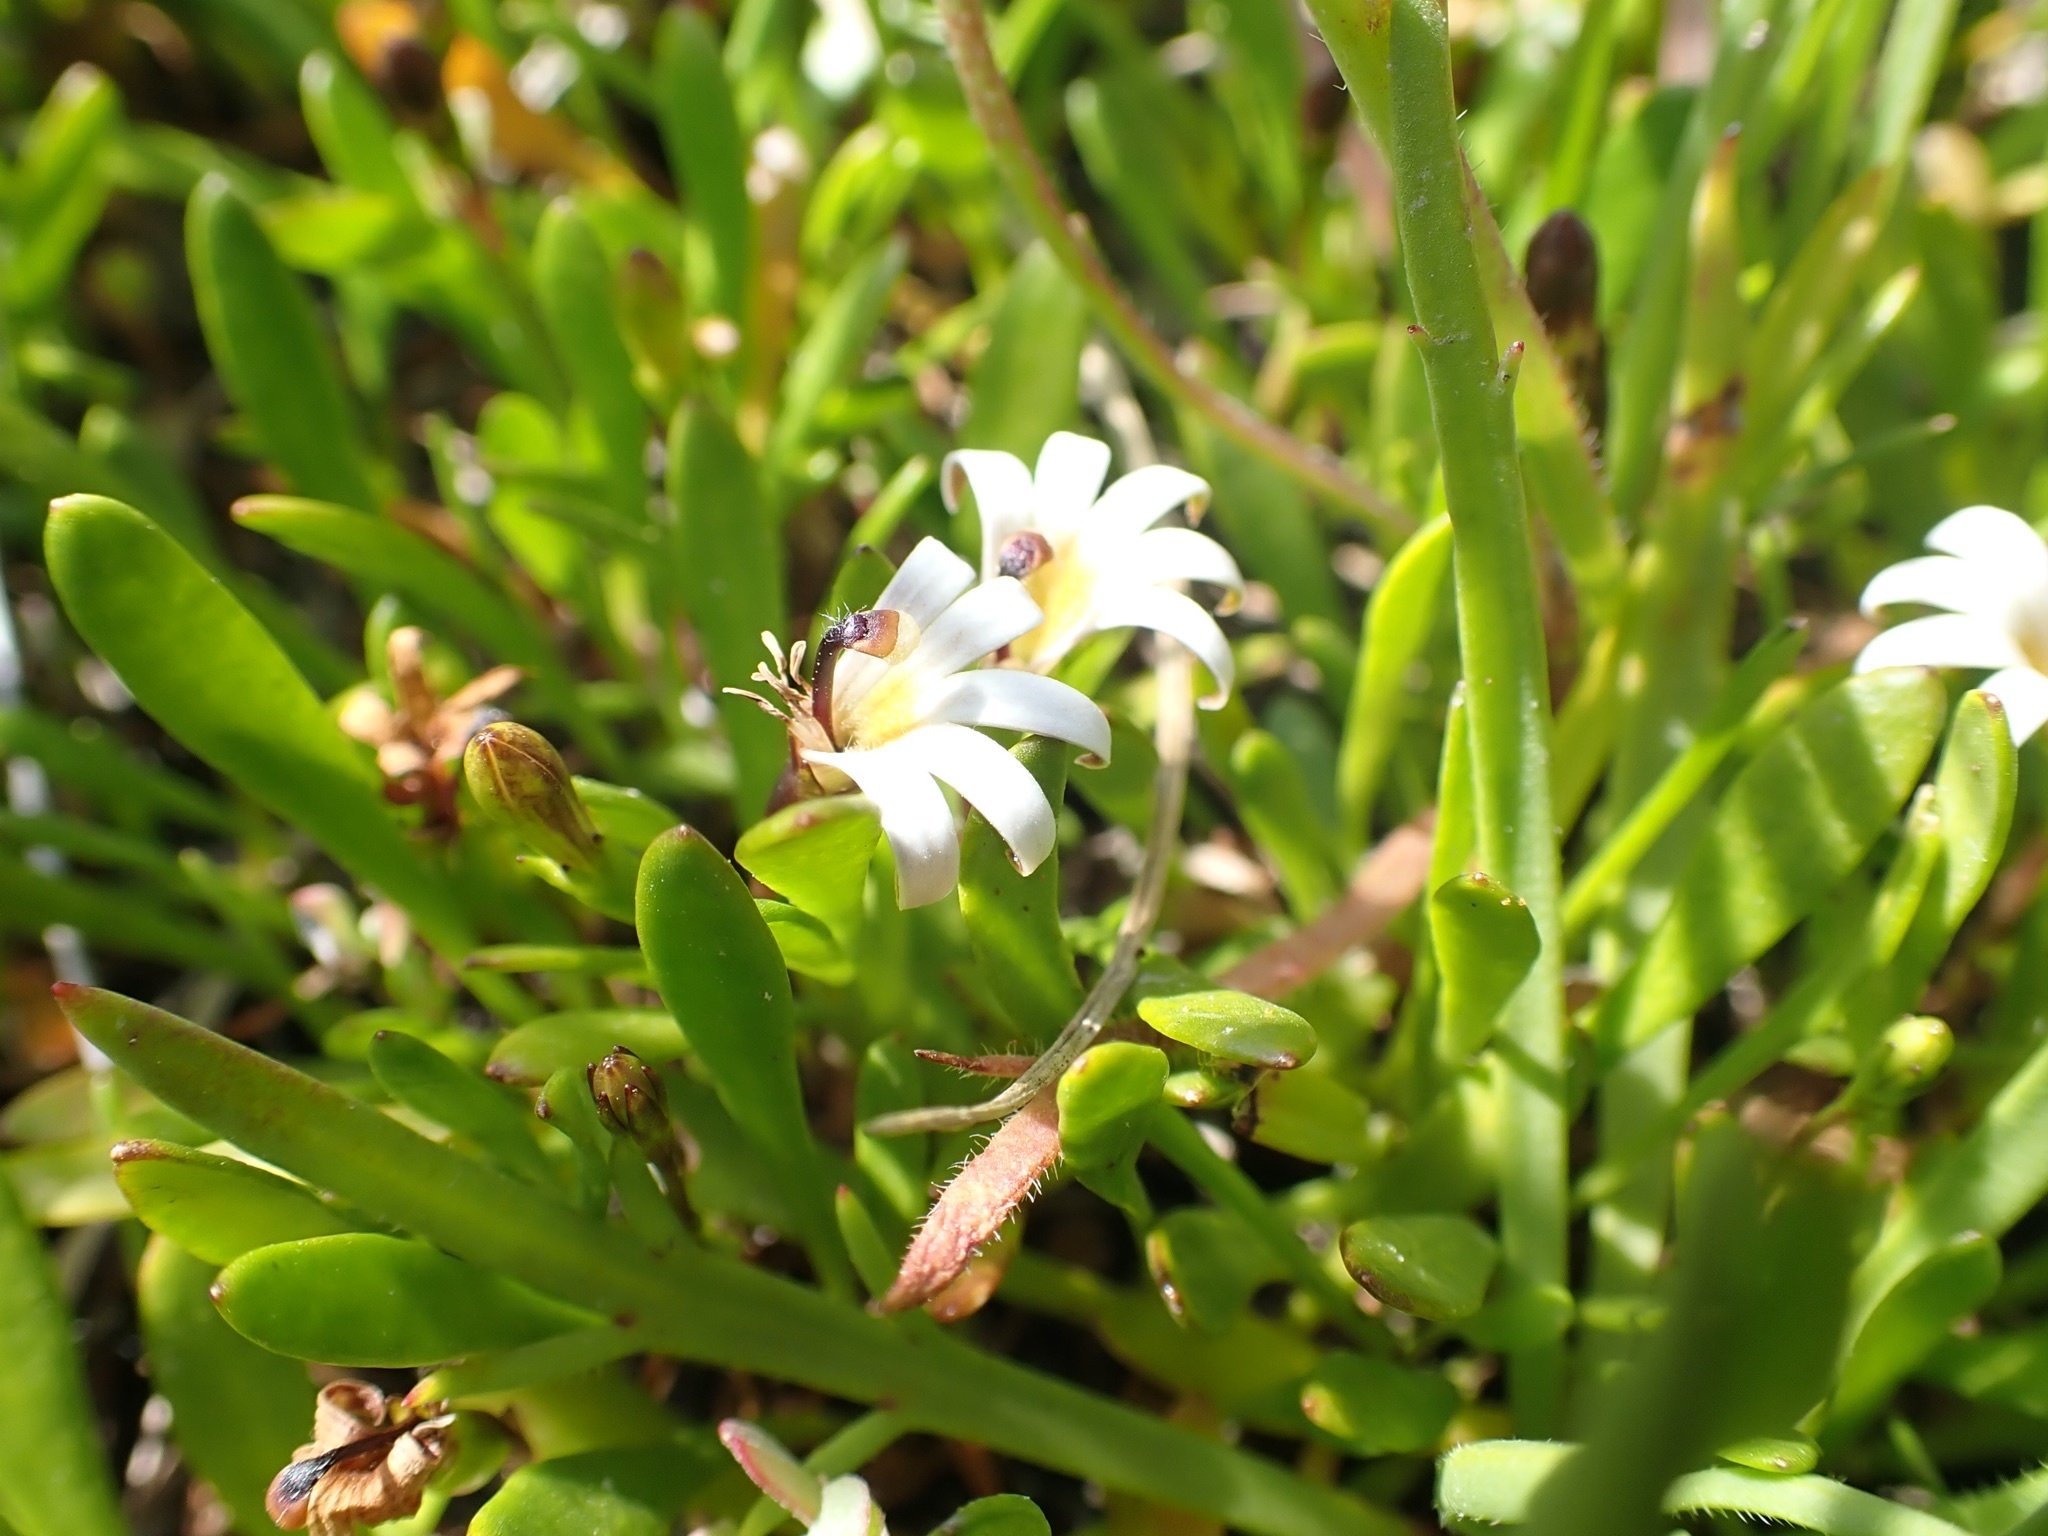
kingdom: Plantae
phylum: Tracheophyta
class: Magnoliopsida
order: Asterales
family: Goodeniaceae
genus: Goodenia
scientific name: Goodenia radicans
